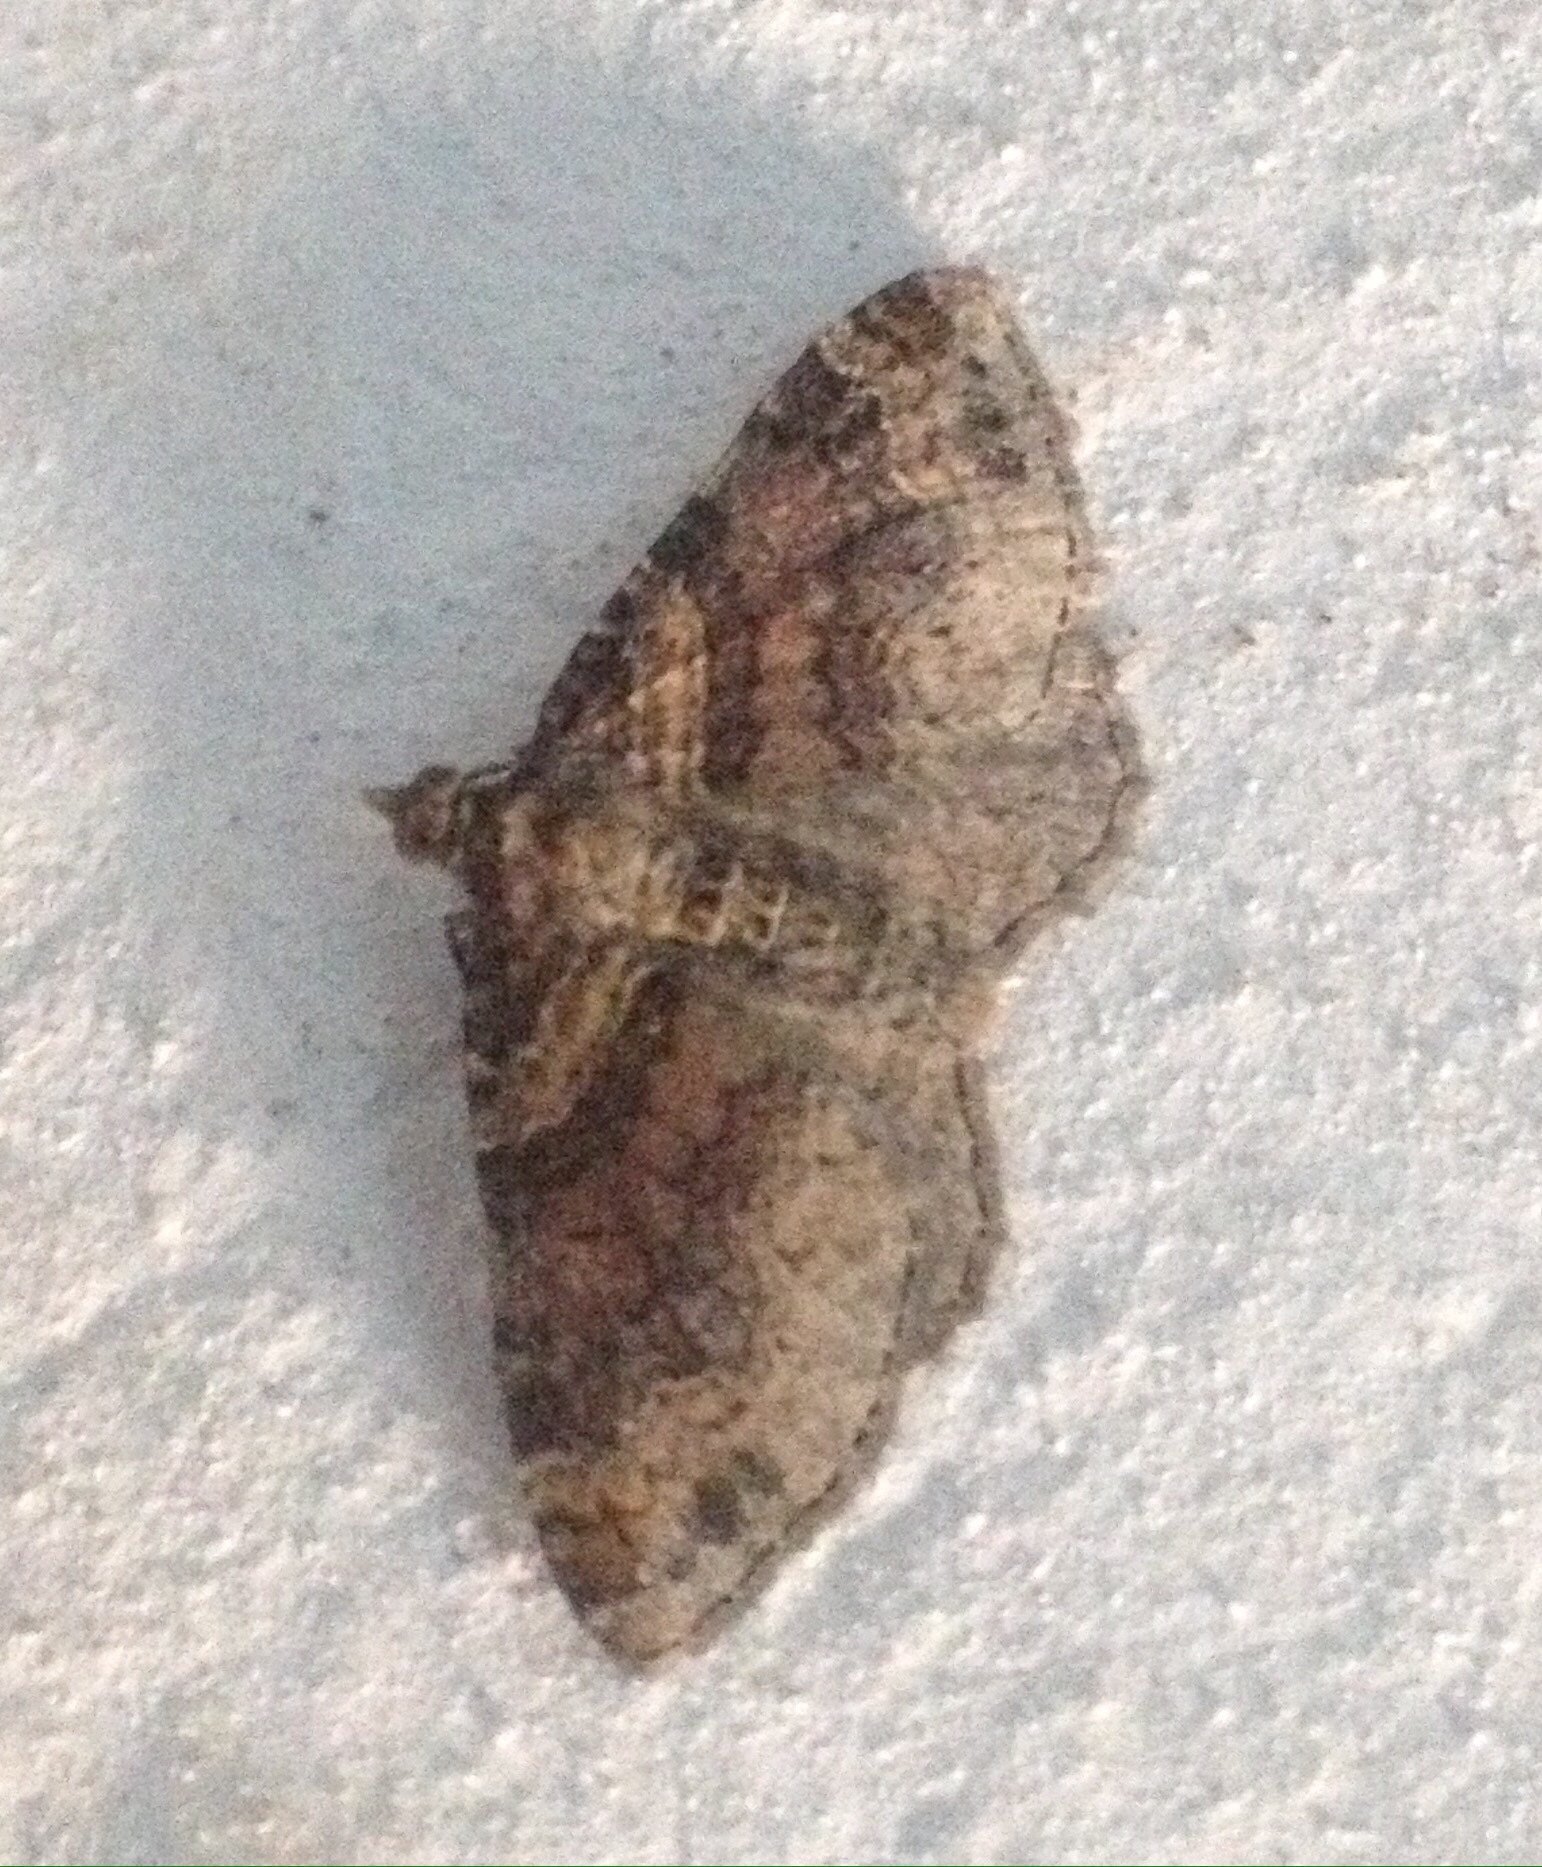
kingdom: Animalia
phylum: Arthropoda
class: Insecta
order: Lepidoptera
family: Geometridae
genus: Xanthorhoe
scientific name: Xanthorhoe ferrugata
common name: Dark-barred twin-spot carpet
